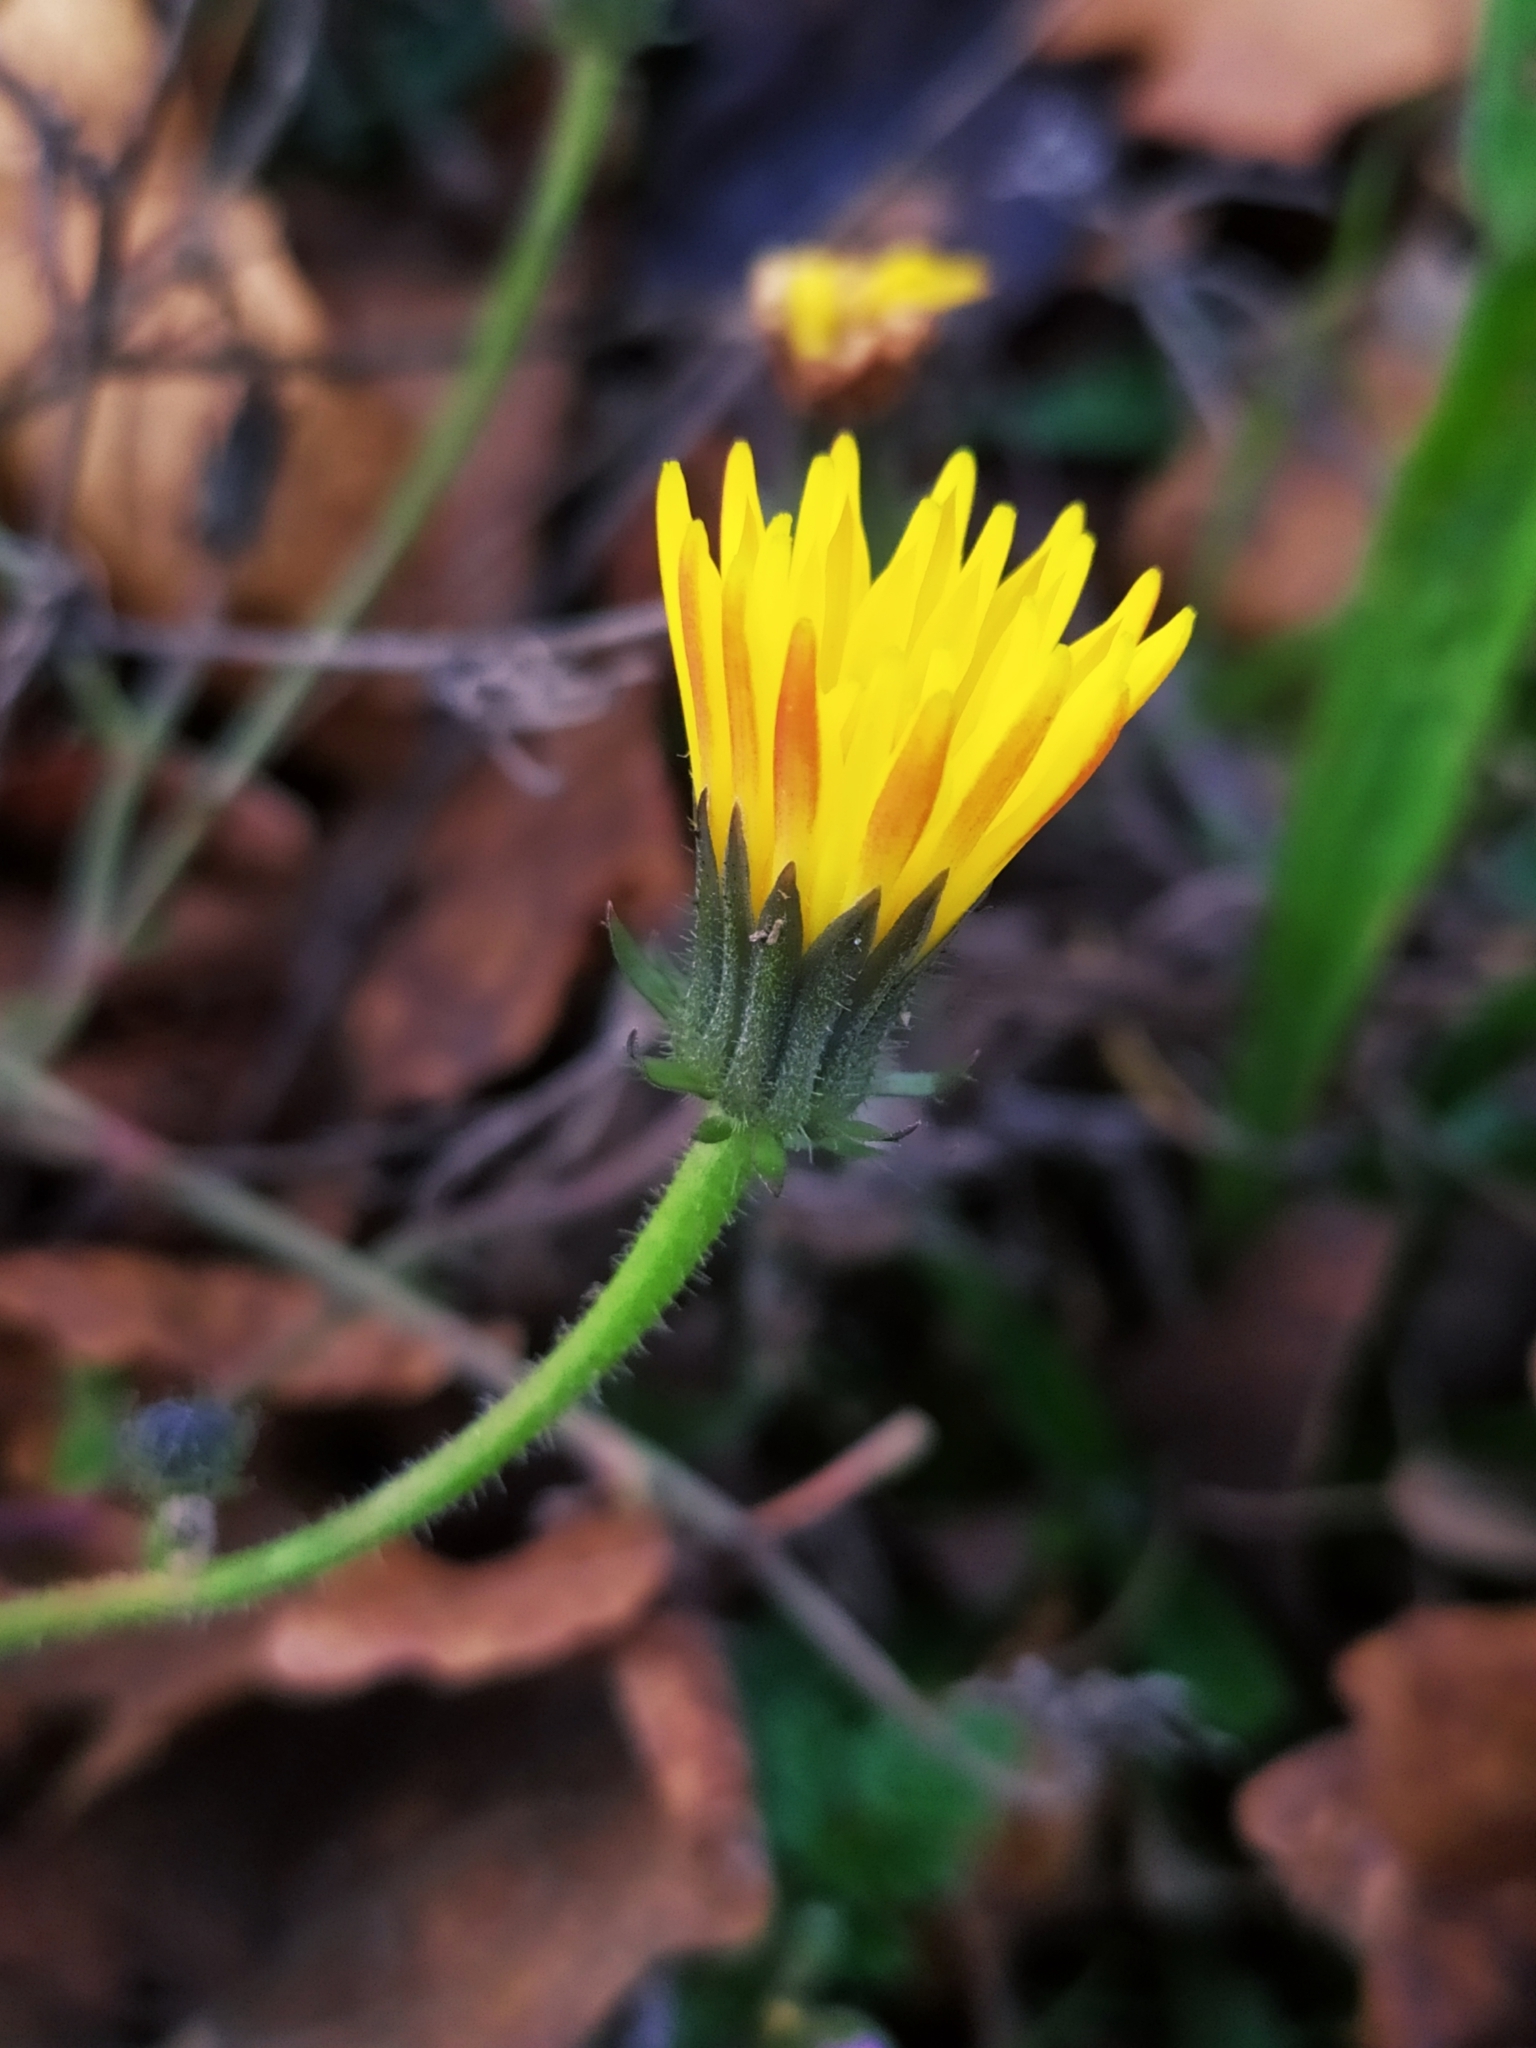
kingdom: Plantae
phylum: Tracheophyta
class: Magnoliopsida
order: Asterales
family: Asteraceae
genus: Picris
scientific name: Picris hieracioides
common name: Hawkweed oxtongue
